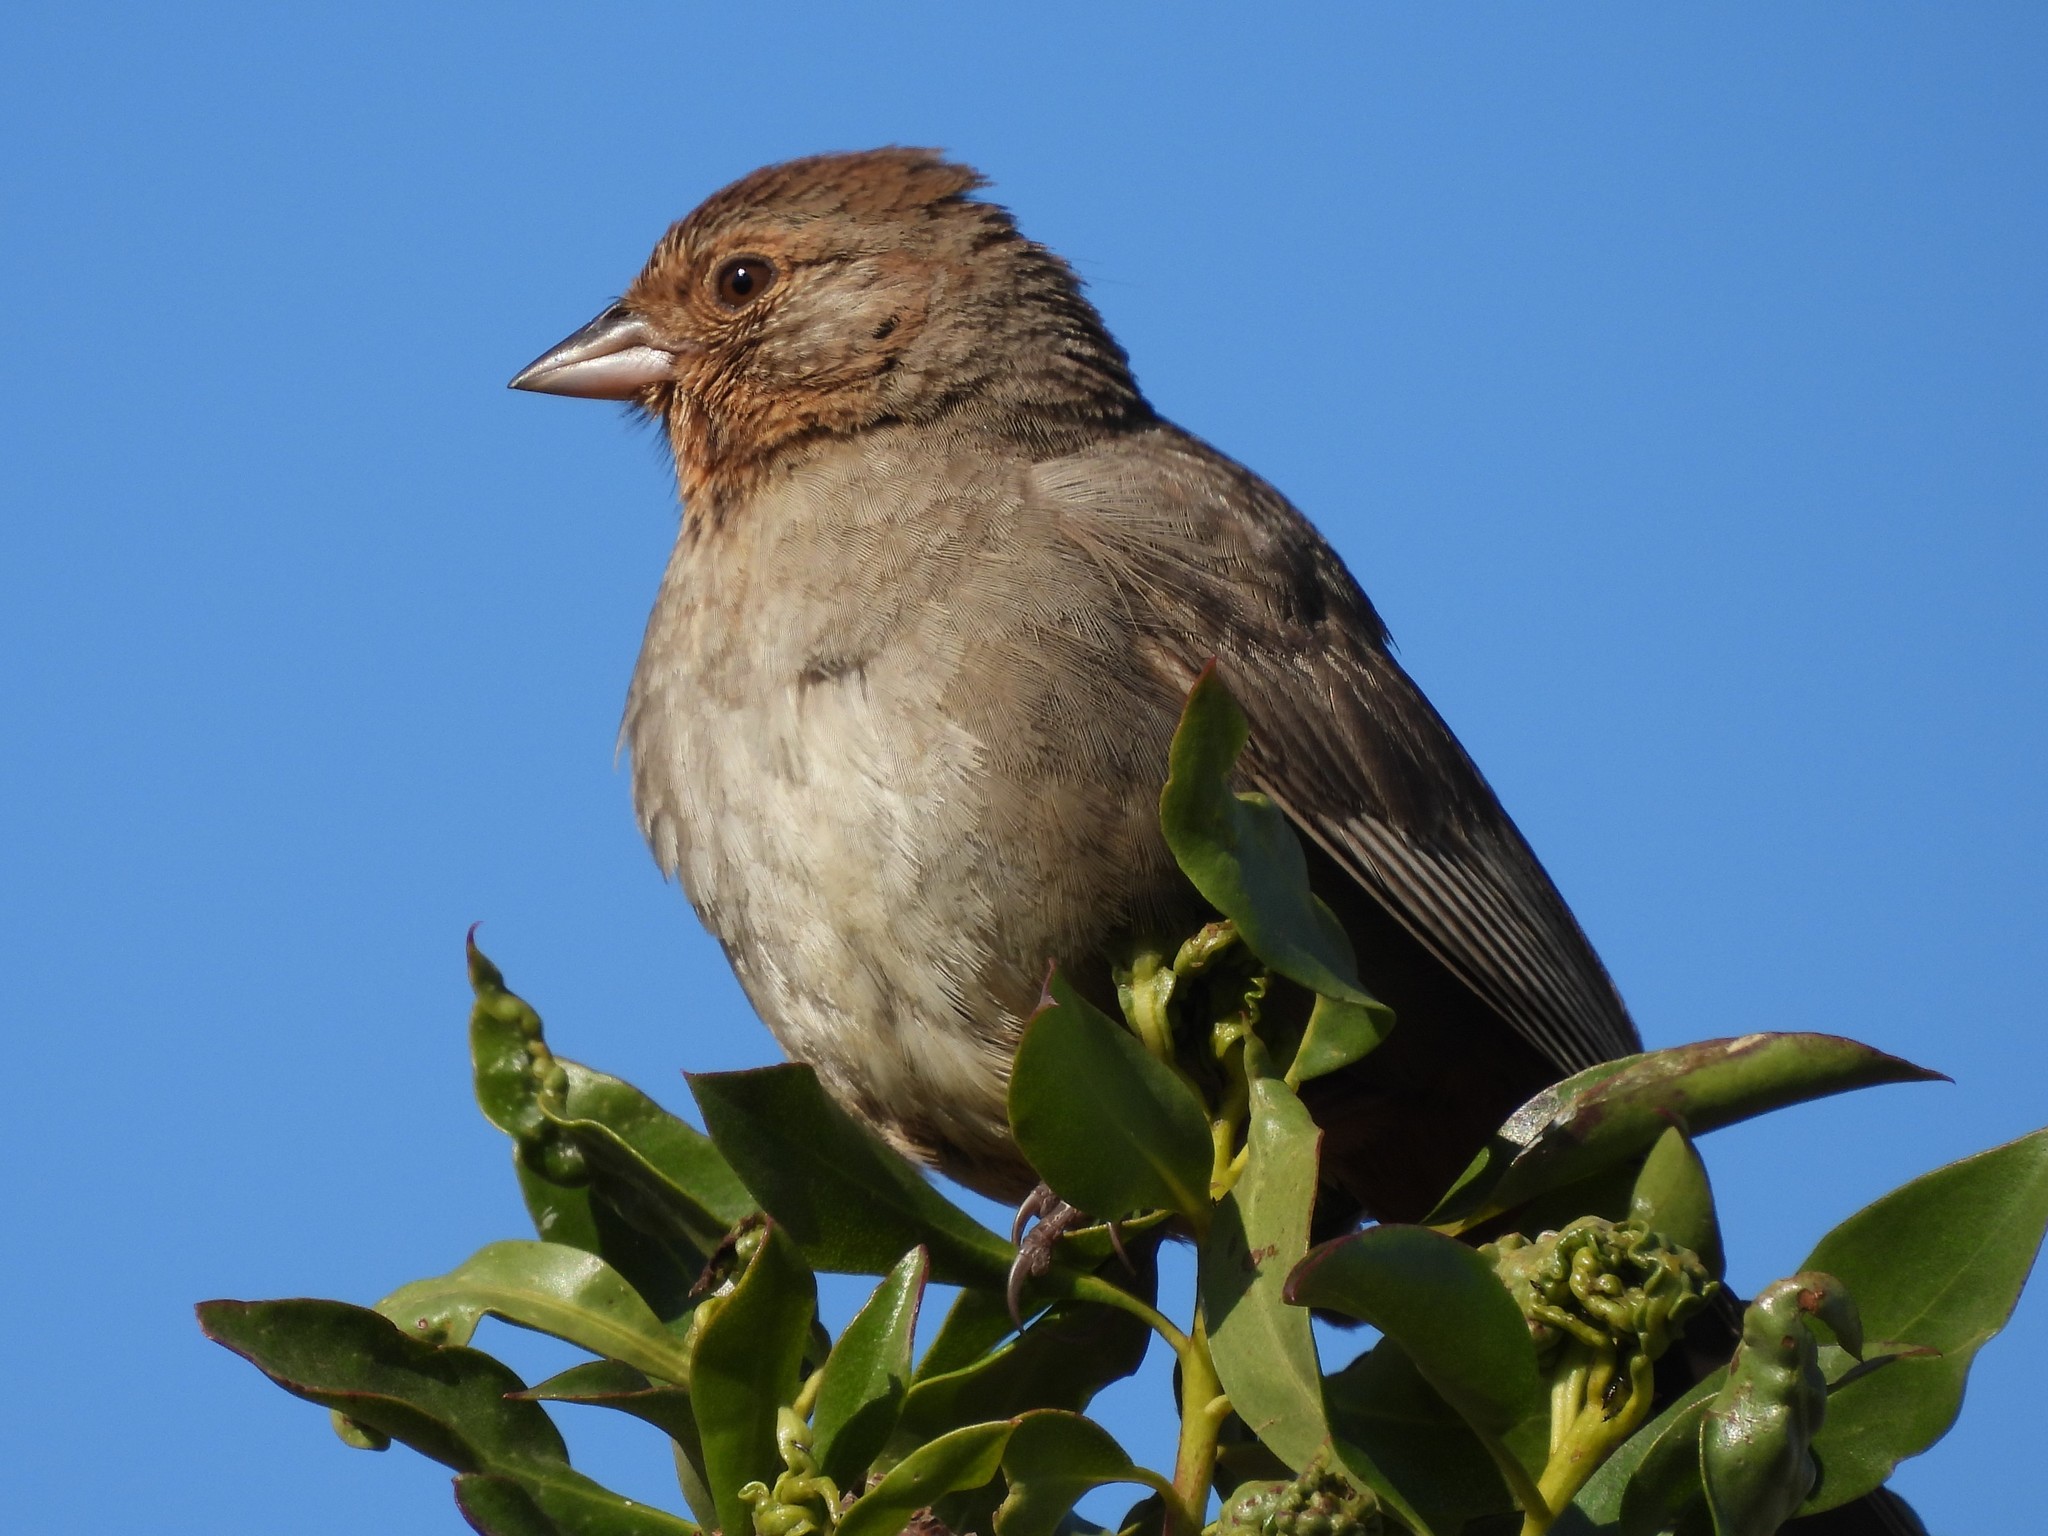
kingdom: Animalia
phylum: Chordata
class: Aves
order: Passeriformes
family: Passerellidae
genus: Melozone
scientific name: Melozone crissalis
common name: California towhee
